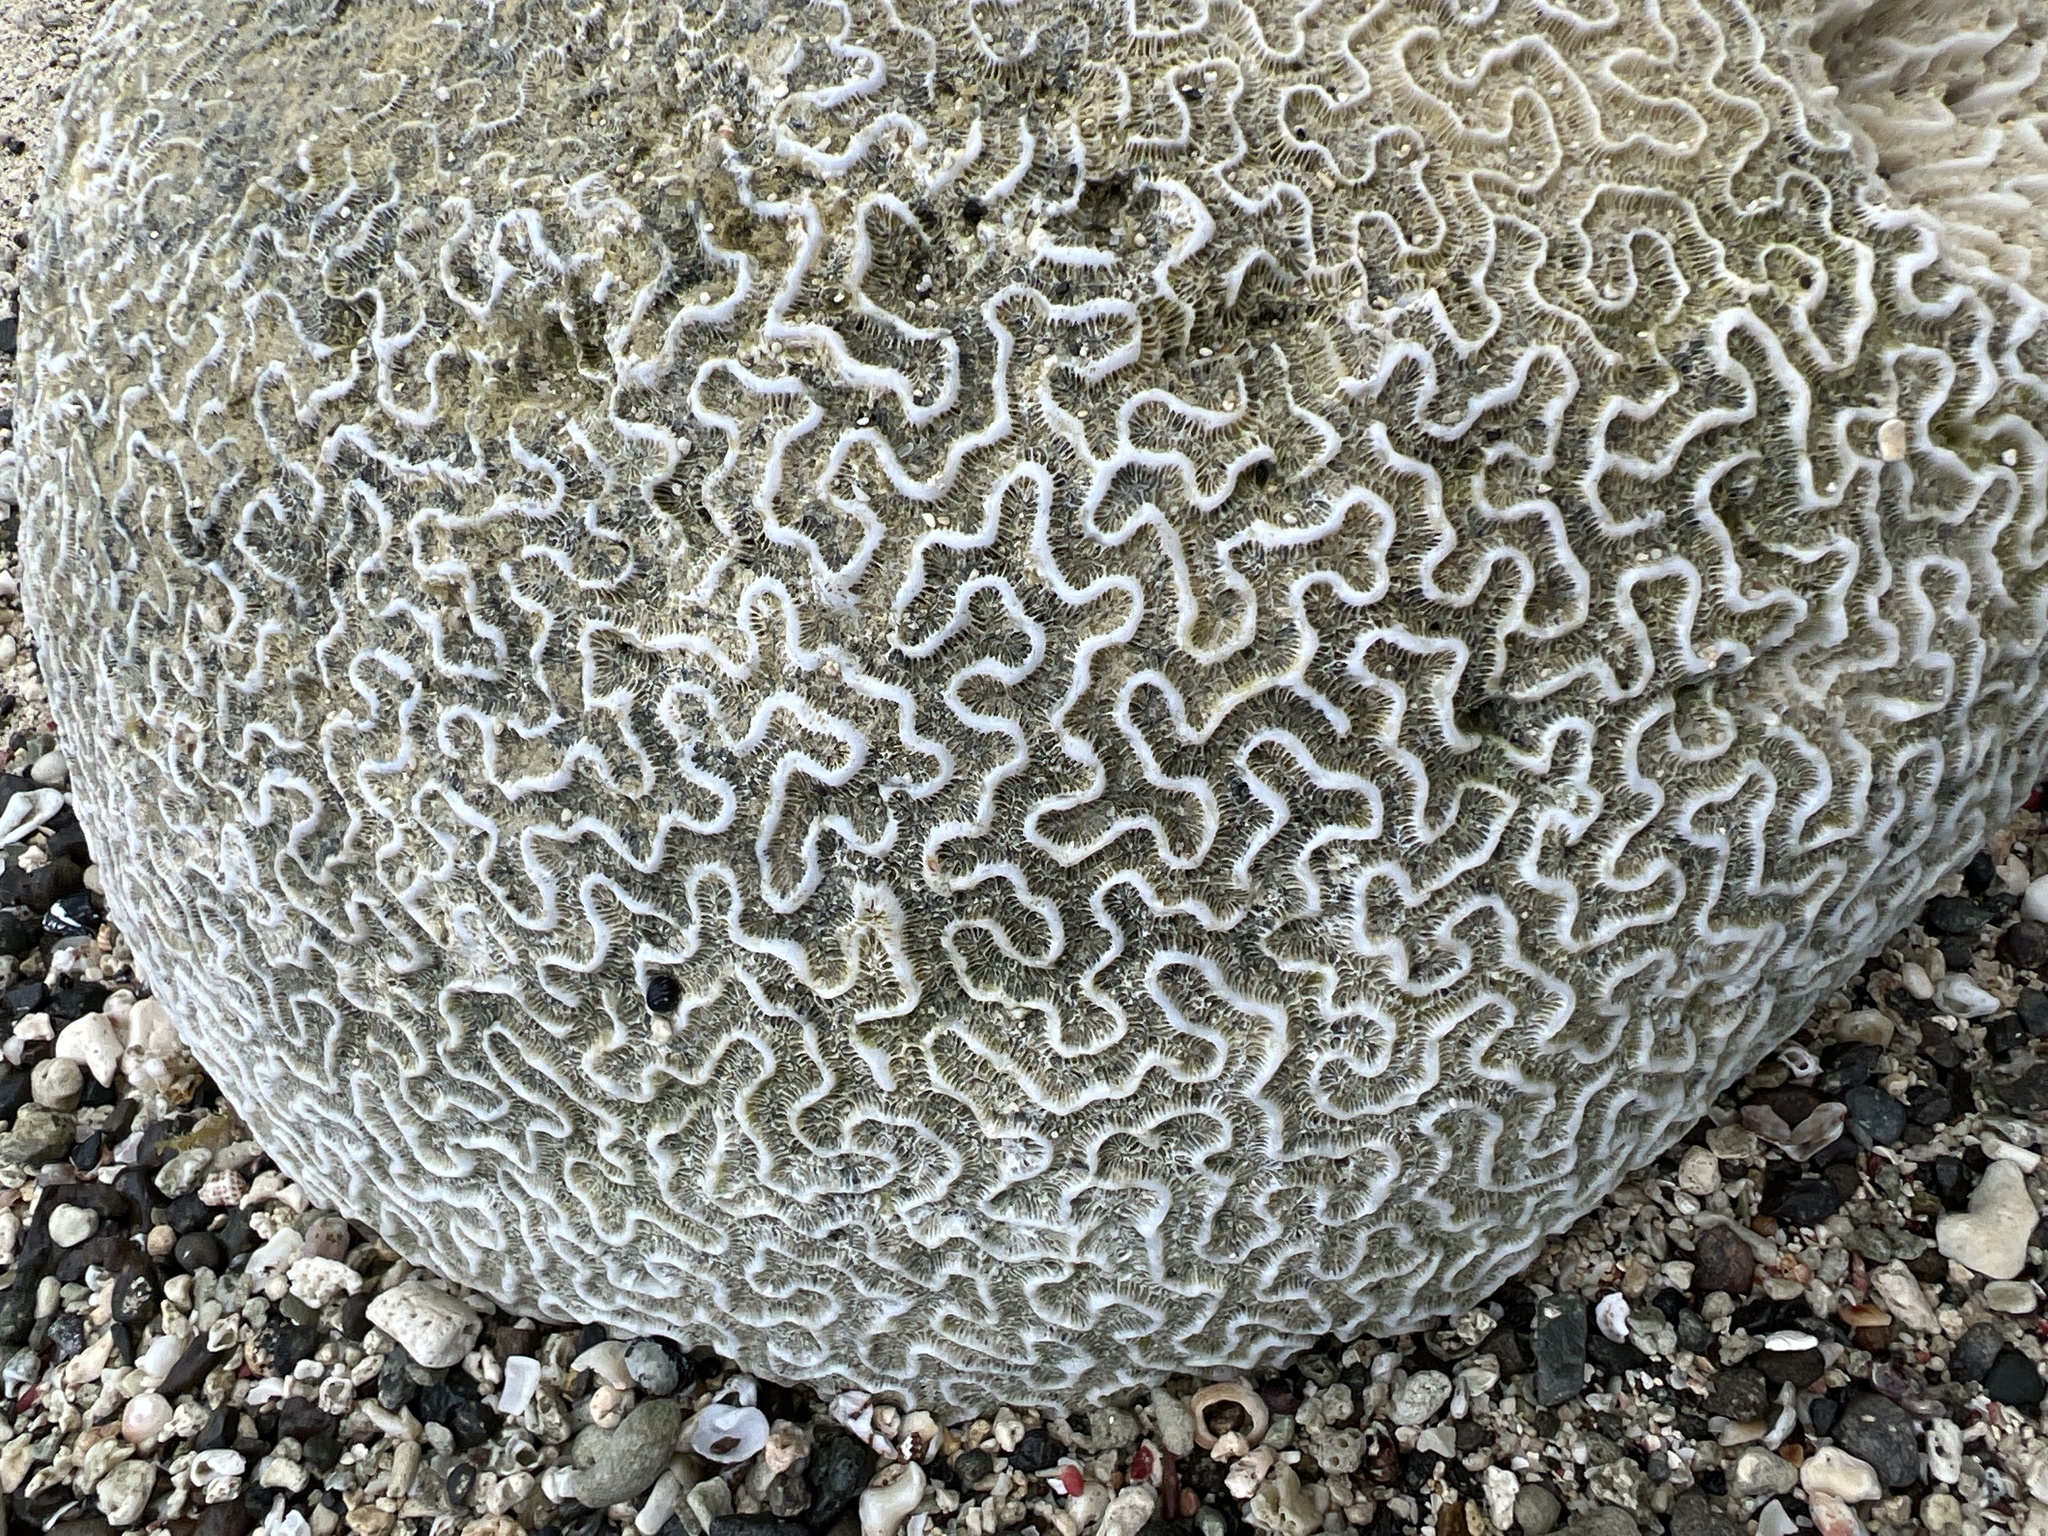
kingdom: Animalia
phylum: Cnidaria
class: Anthozoa
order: Scleractinia
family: Faviidae
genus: Pseudodiploria
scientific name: Pseudodiploria strigosa
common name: Symmetrical brain coral
